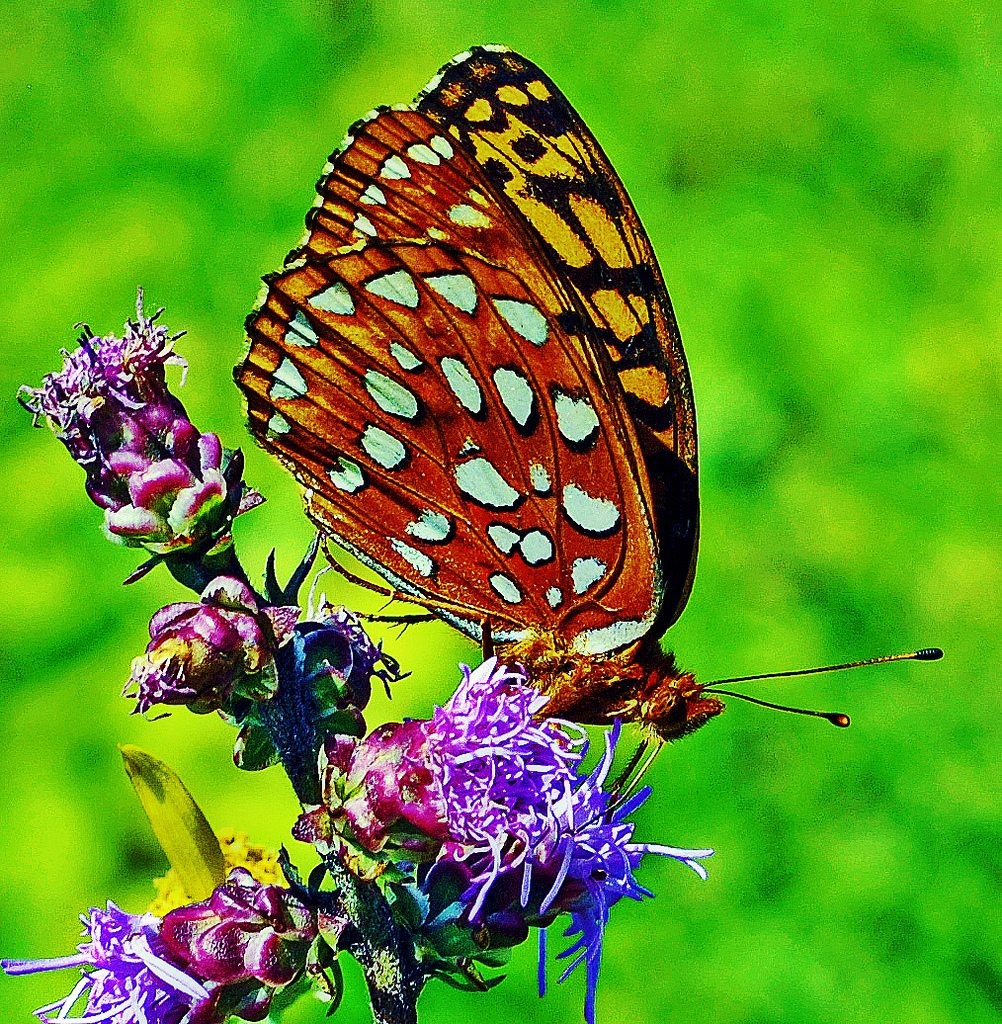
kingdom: Animalia
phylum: Arthropoda
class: Insecta
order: Lepidoptera
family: Nymphalidae
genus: Speyeria
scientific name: Speyeria aphrodite
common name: Aphrodite friitllary
